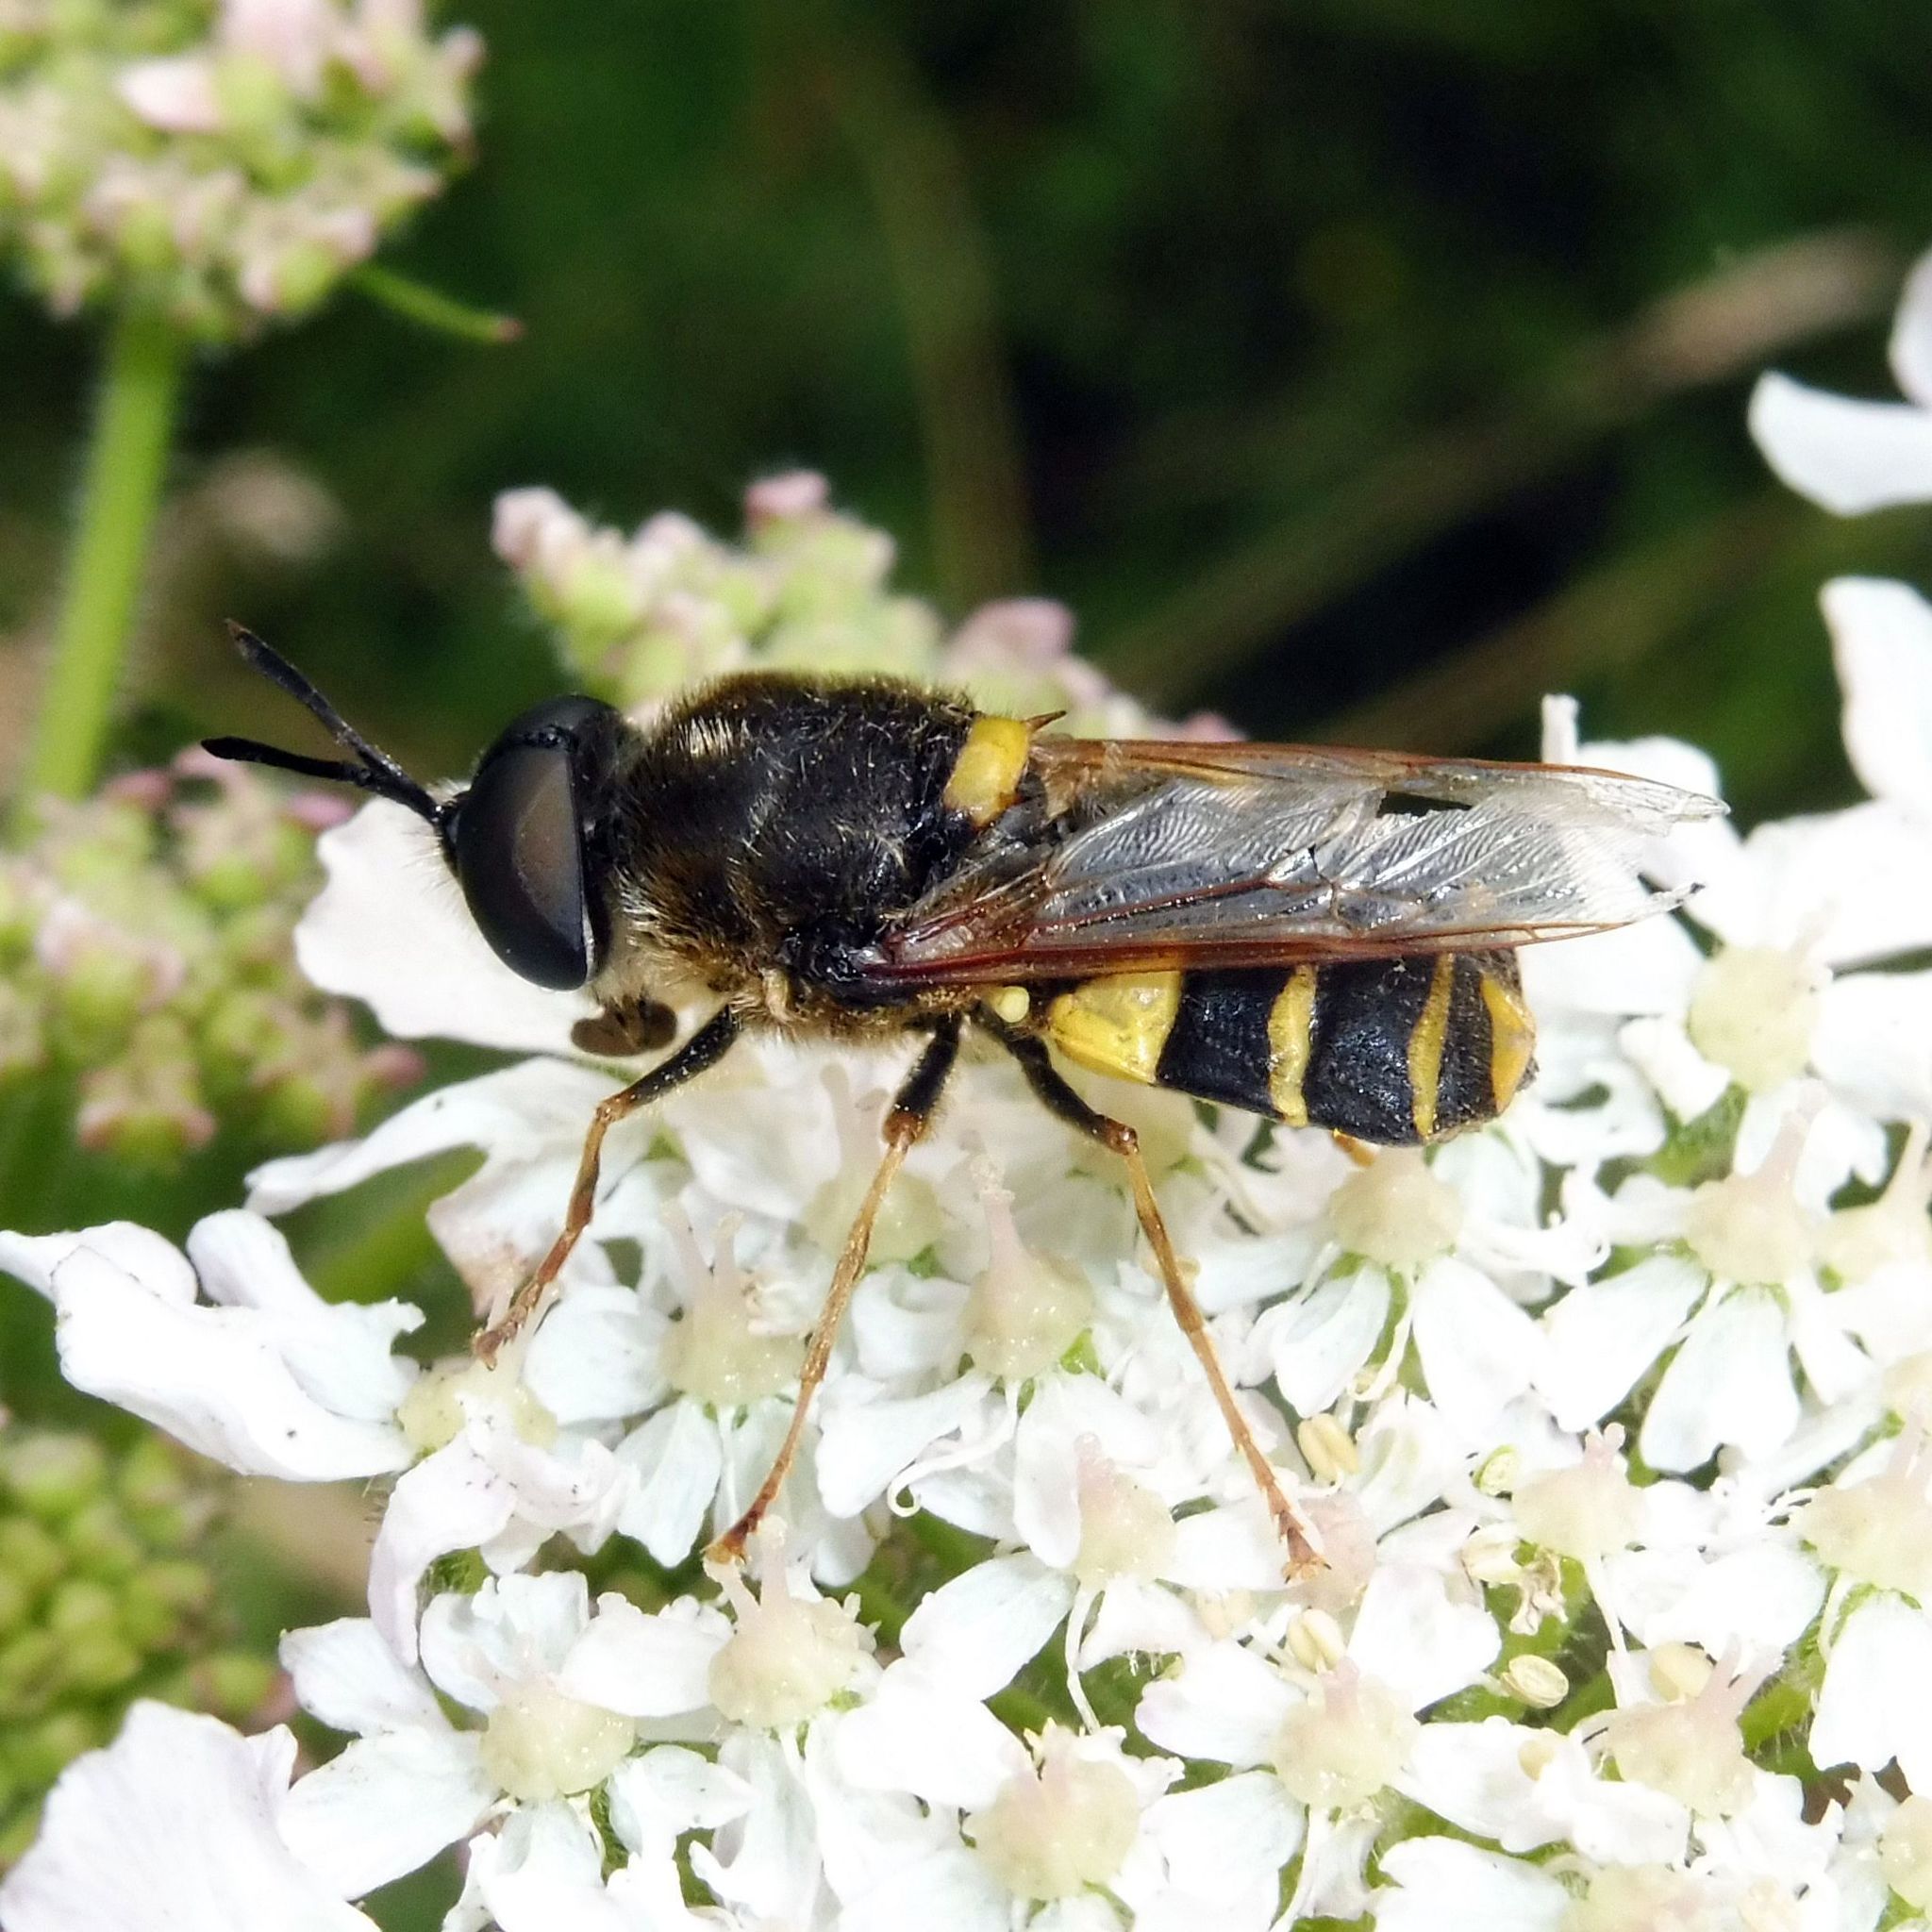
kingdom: Animalia
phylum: Arthropoda
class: Insecta
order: Diptera
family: Stratiomyidae
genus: Stratiomys
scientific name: Stratiomys potamida
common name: Banded general
